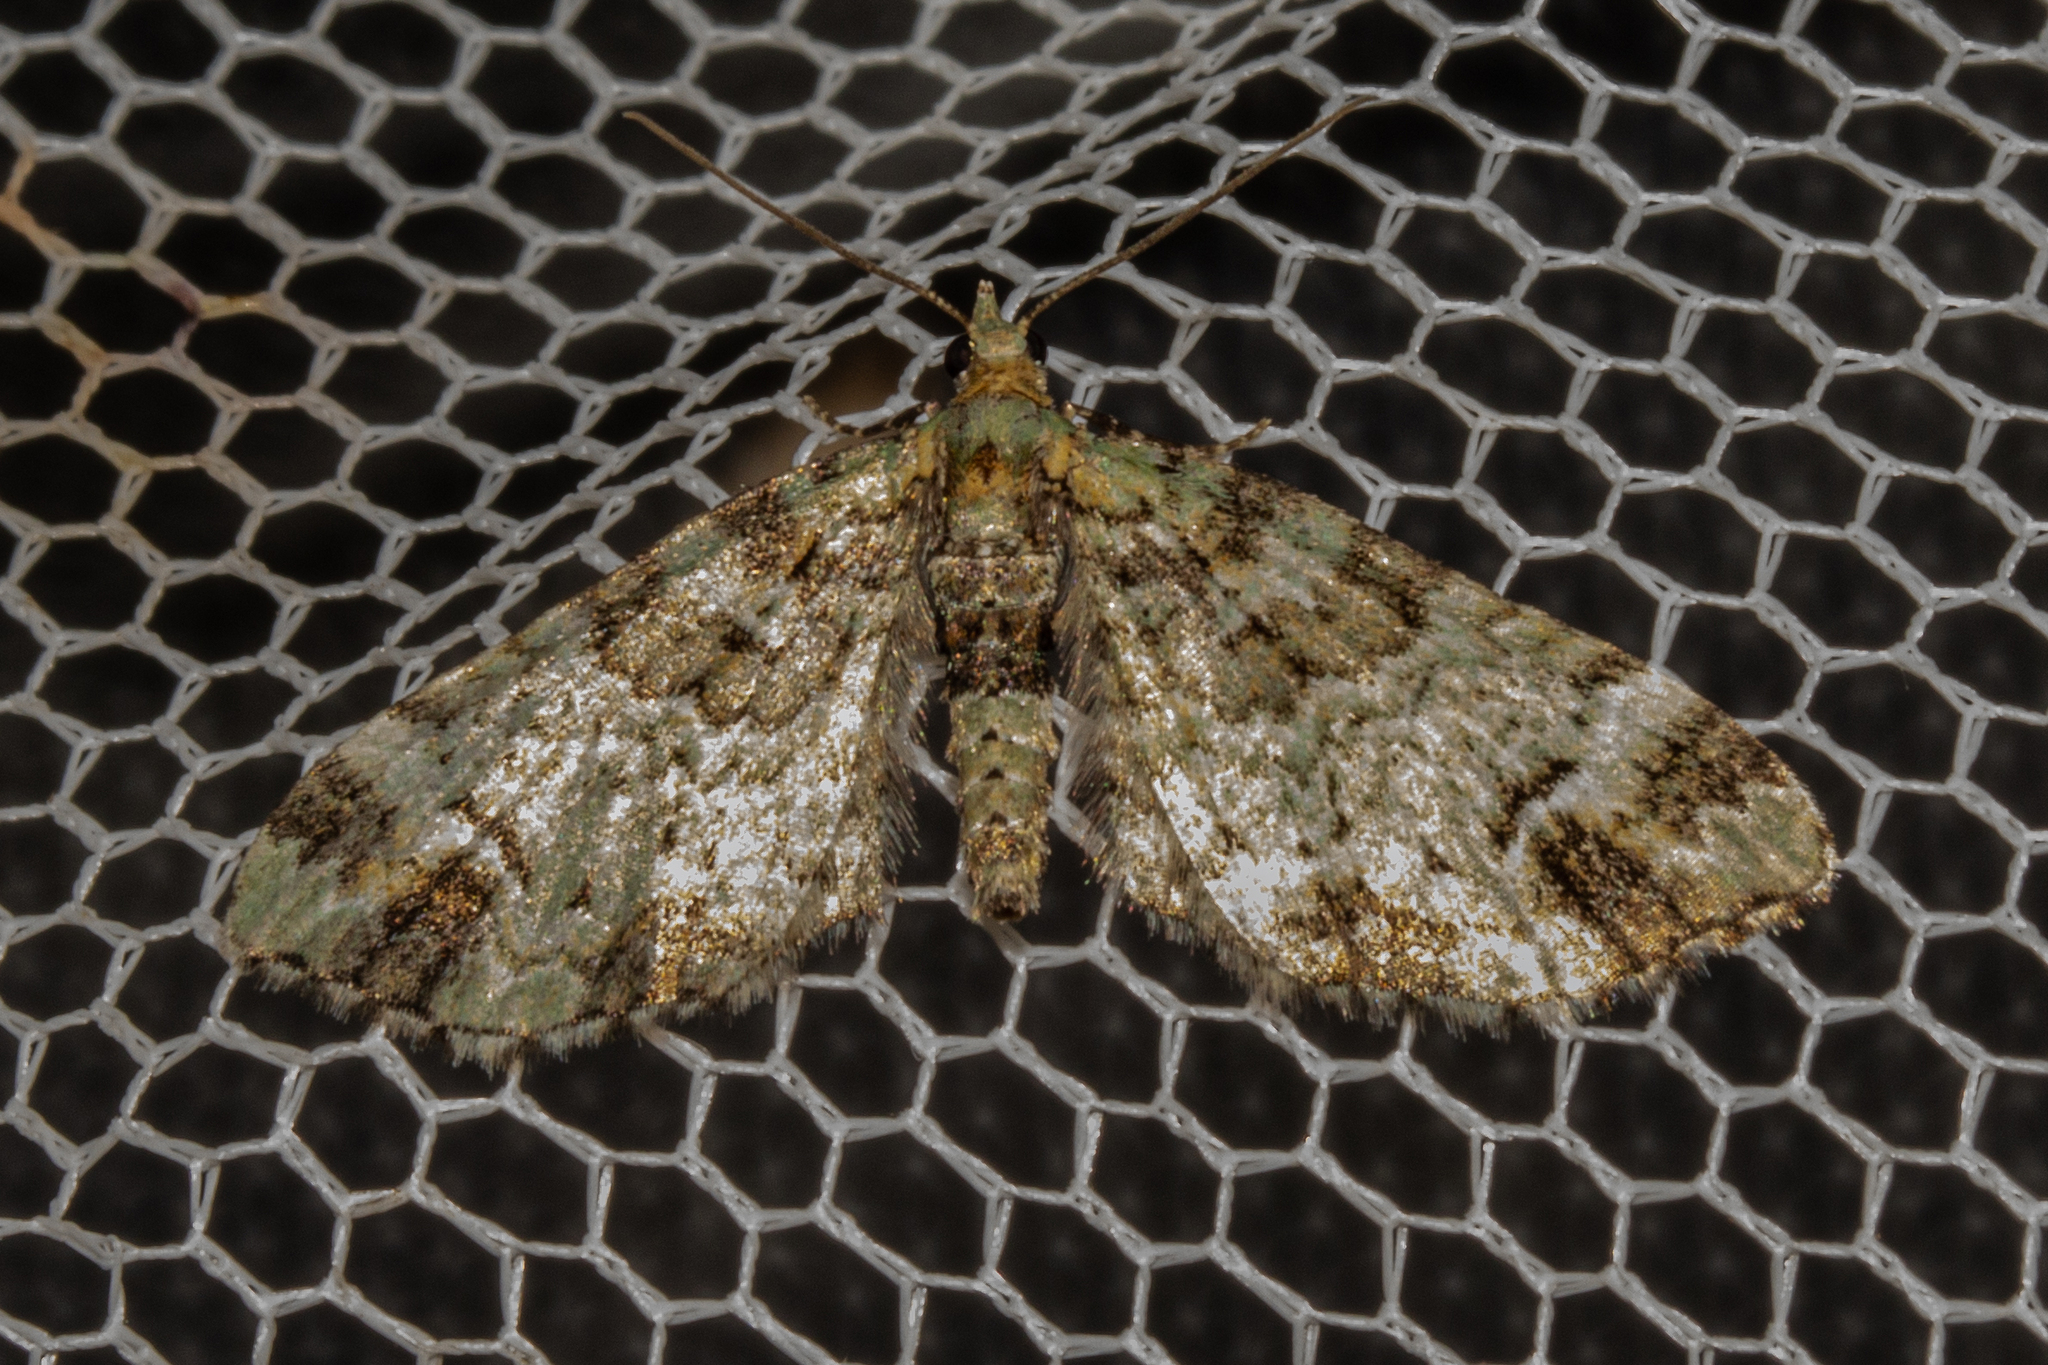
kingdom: Animalia
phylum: Arthropoda
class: Insecta
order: Lepidoptera
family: Geometridae
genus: Pasiphila
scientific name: Pasiphila bilineolata
